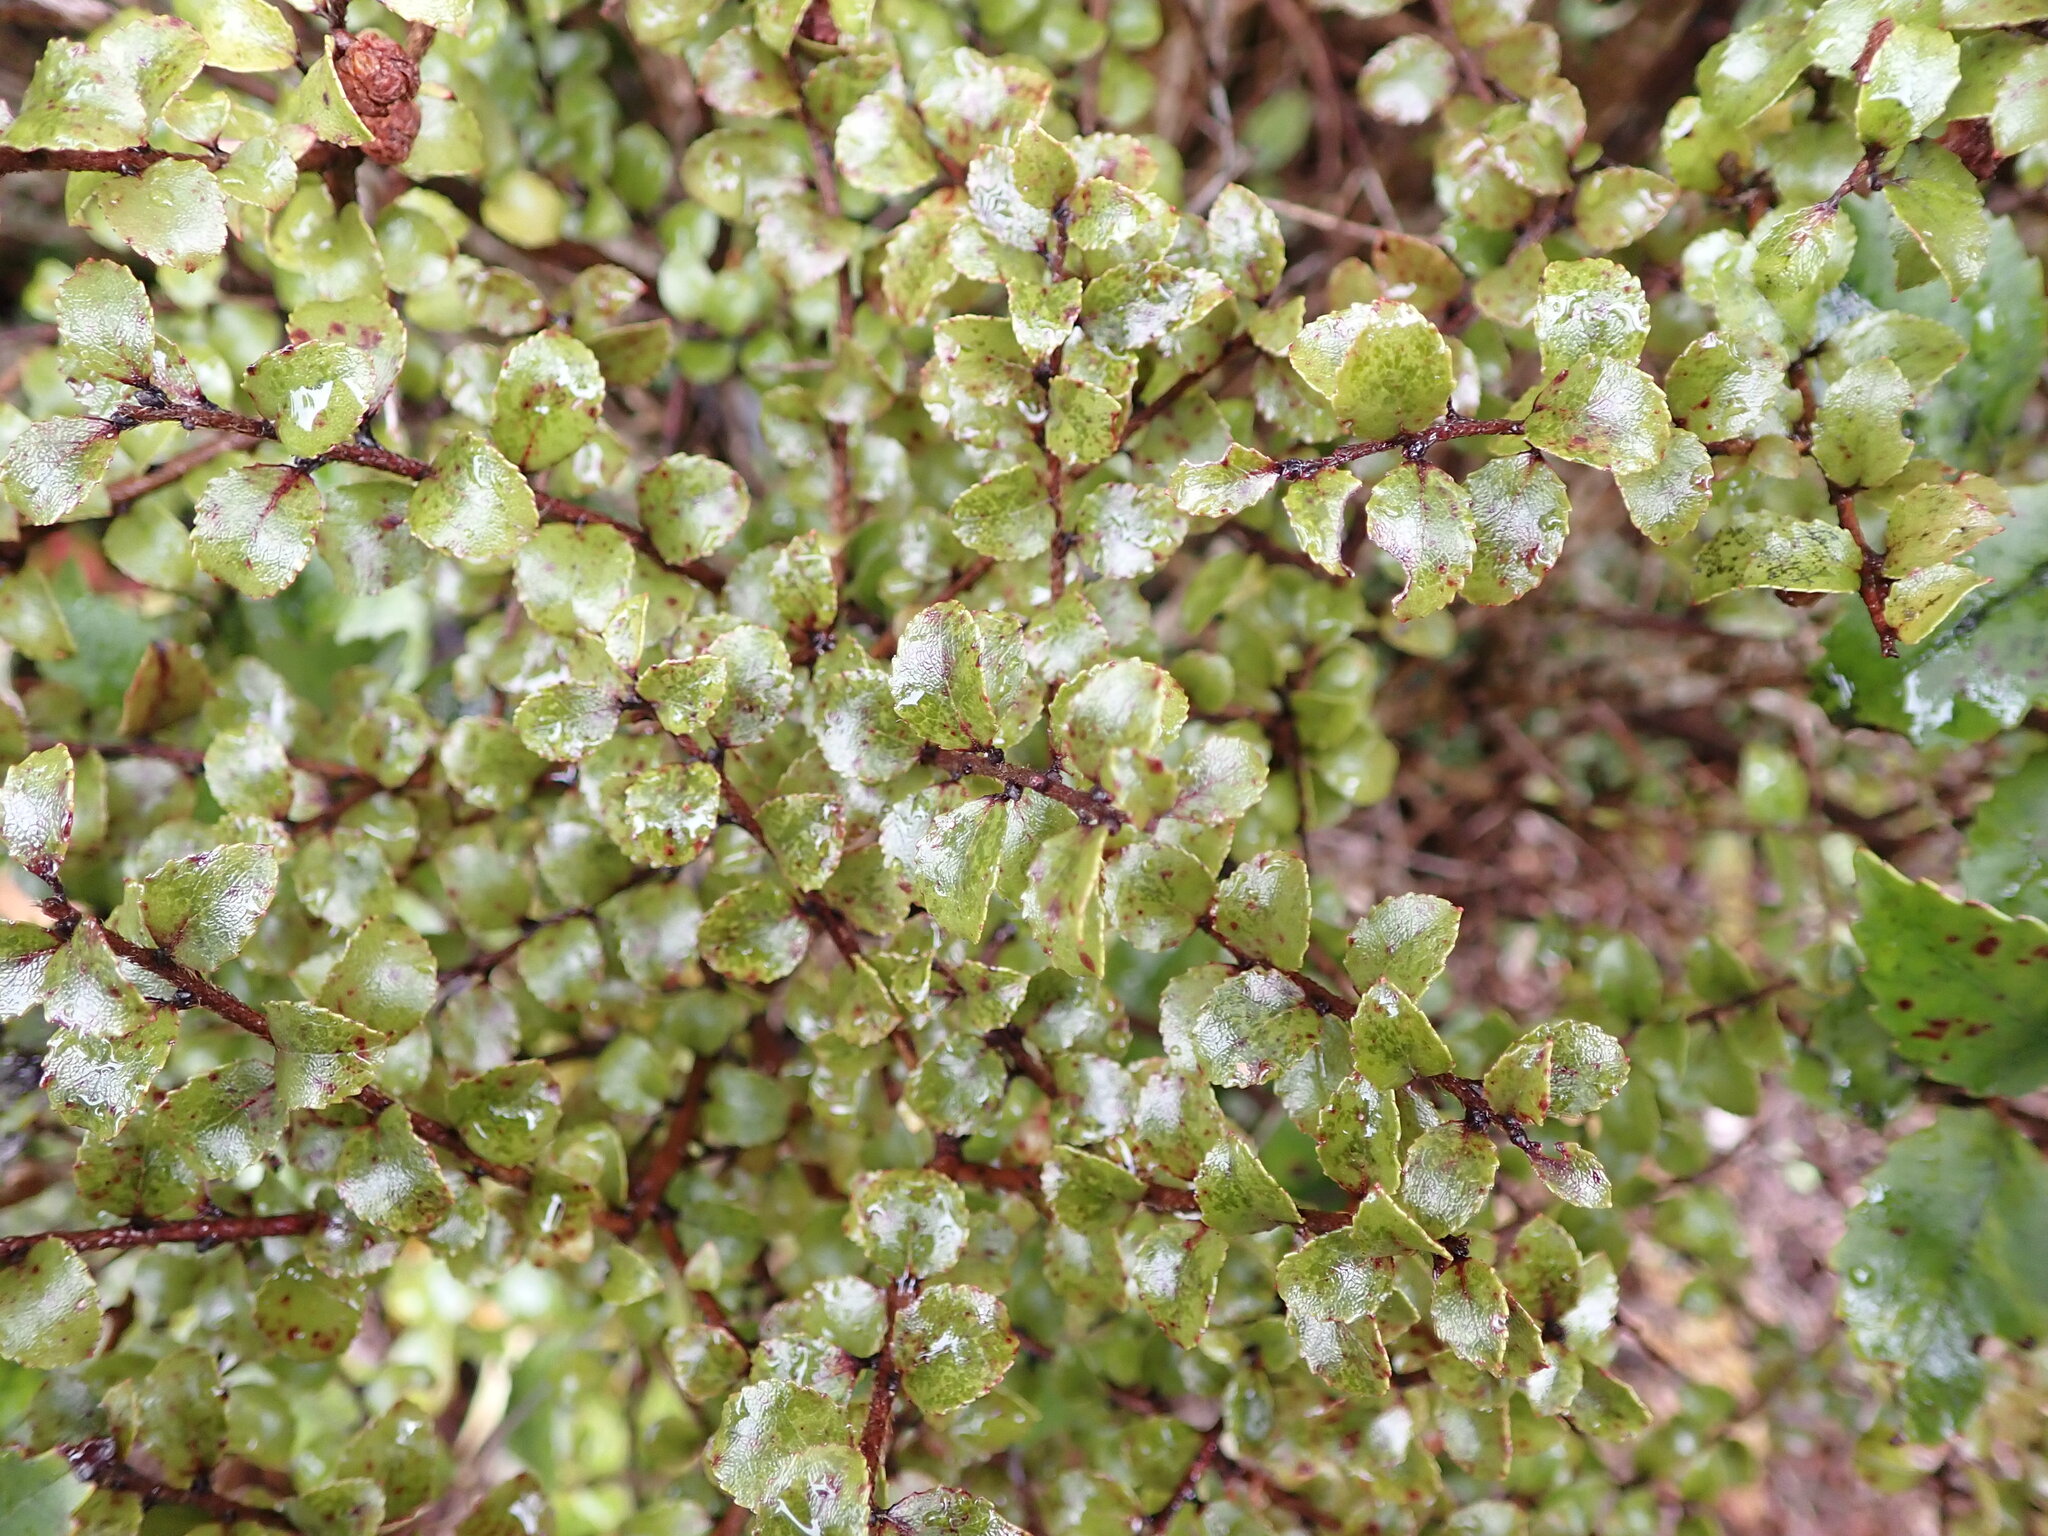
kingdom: Plantae
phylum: Tracheophyta
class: Magnoliopsida
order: Ericales
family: Ericaceae
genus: Gaultheria
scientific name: Gaultheria antipoda
